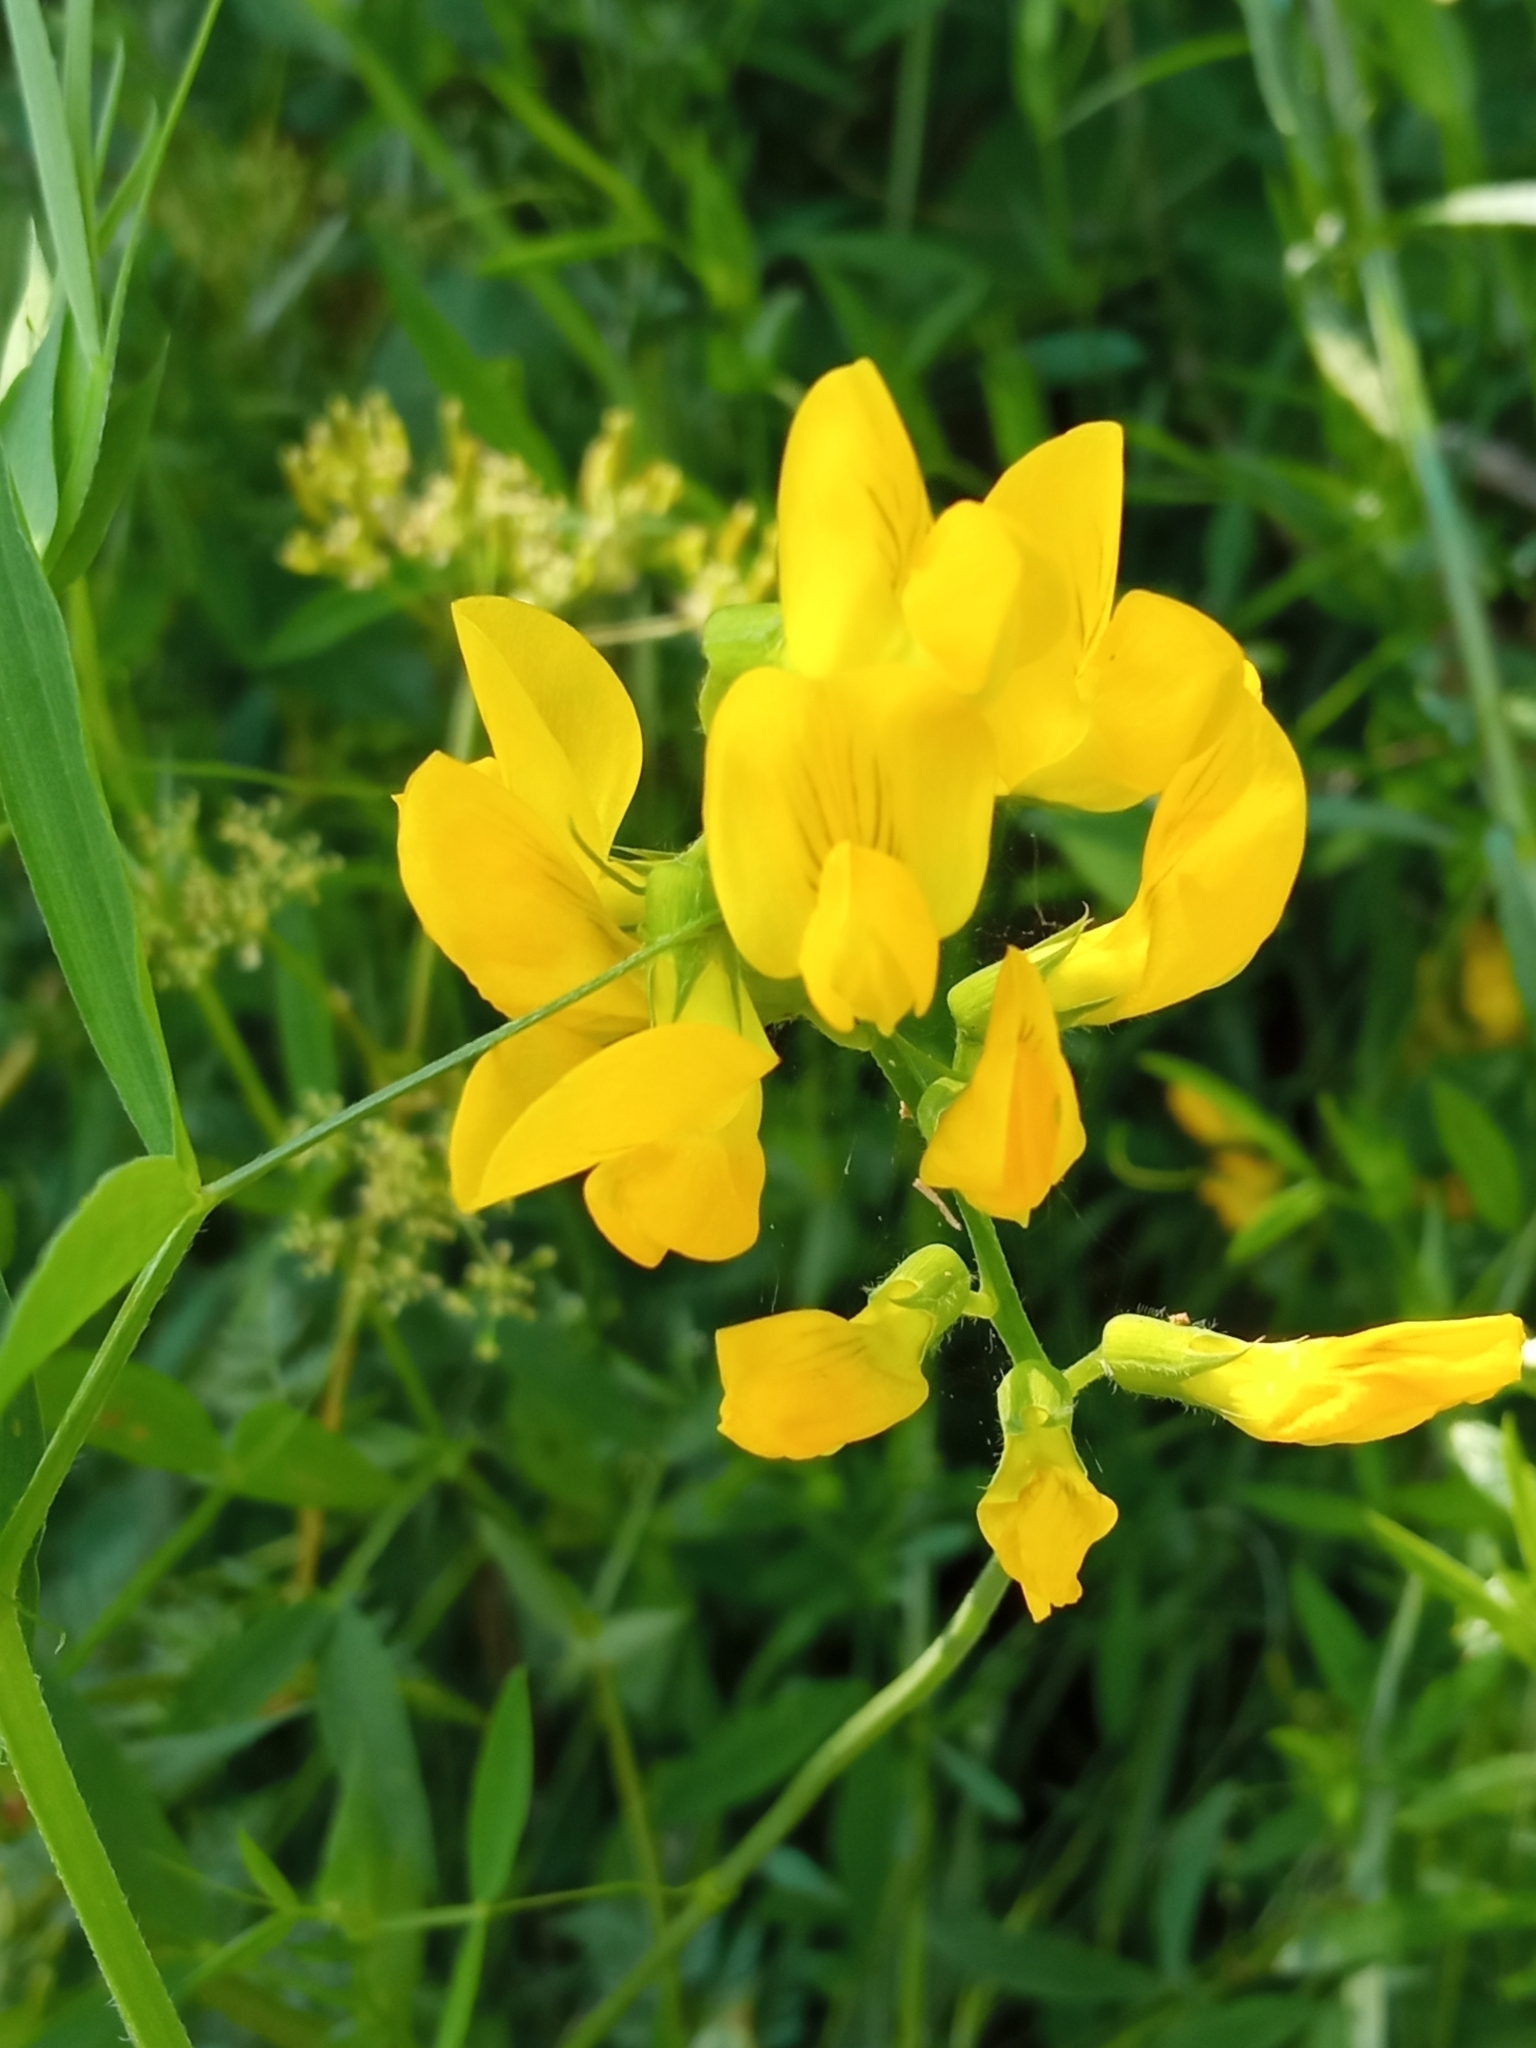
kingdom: Plantae
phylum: Tracheophyta
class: Magnoliopsida
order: Fabales
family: Fabaceae
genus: Lathyrus
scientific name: Lathyrus pratensis
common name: Meadow vetchling
